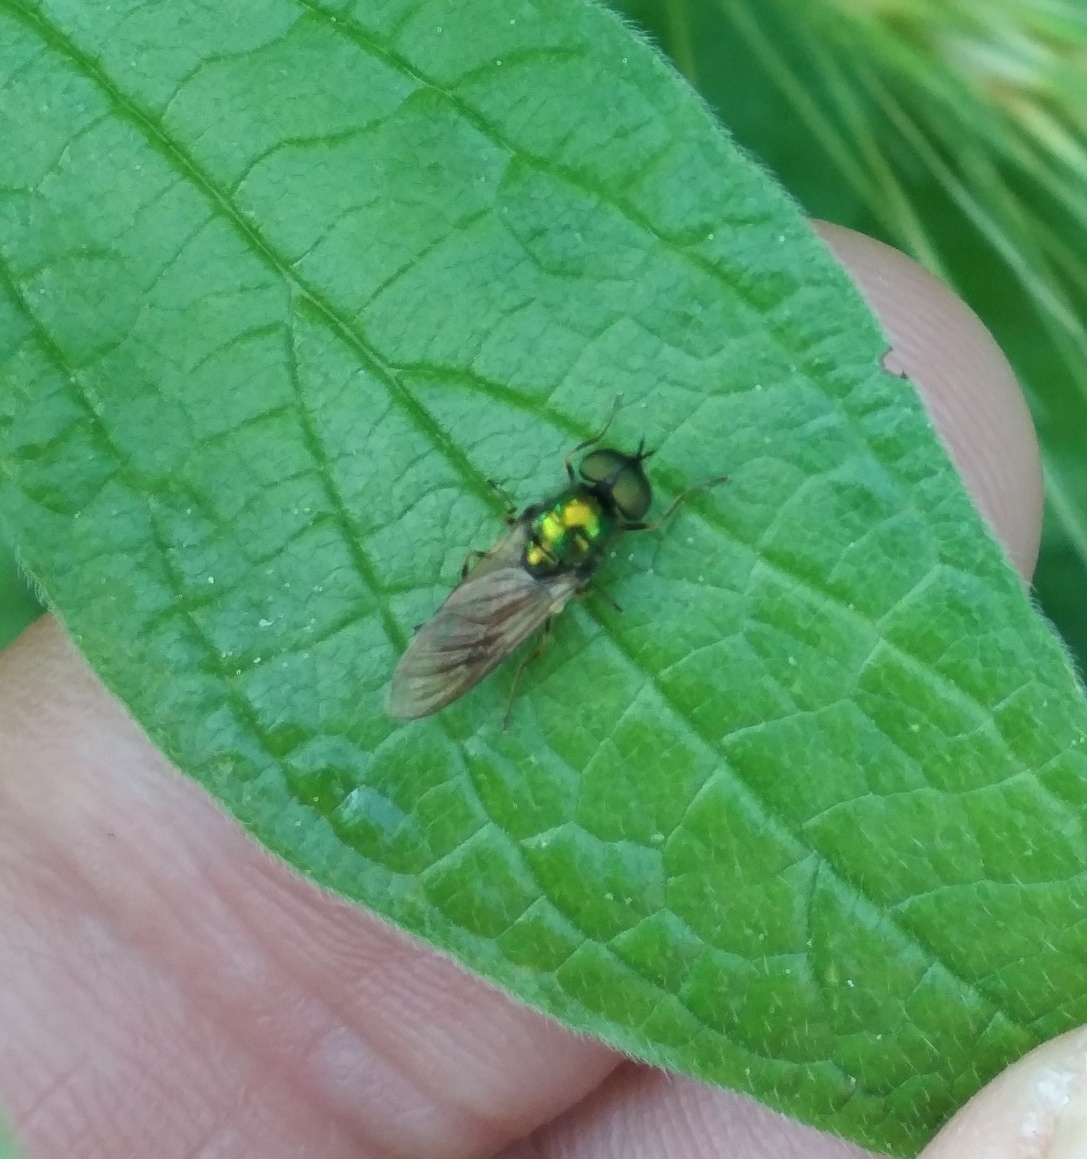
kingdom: Animalia
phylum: Arthropoda
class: Insecta
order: Diptera
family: Stratiomyidae
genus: Chloromyia
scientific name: Chloromyia formosa
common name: Soldier fly
